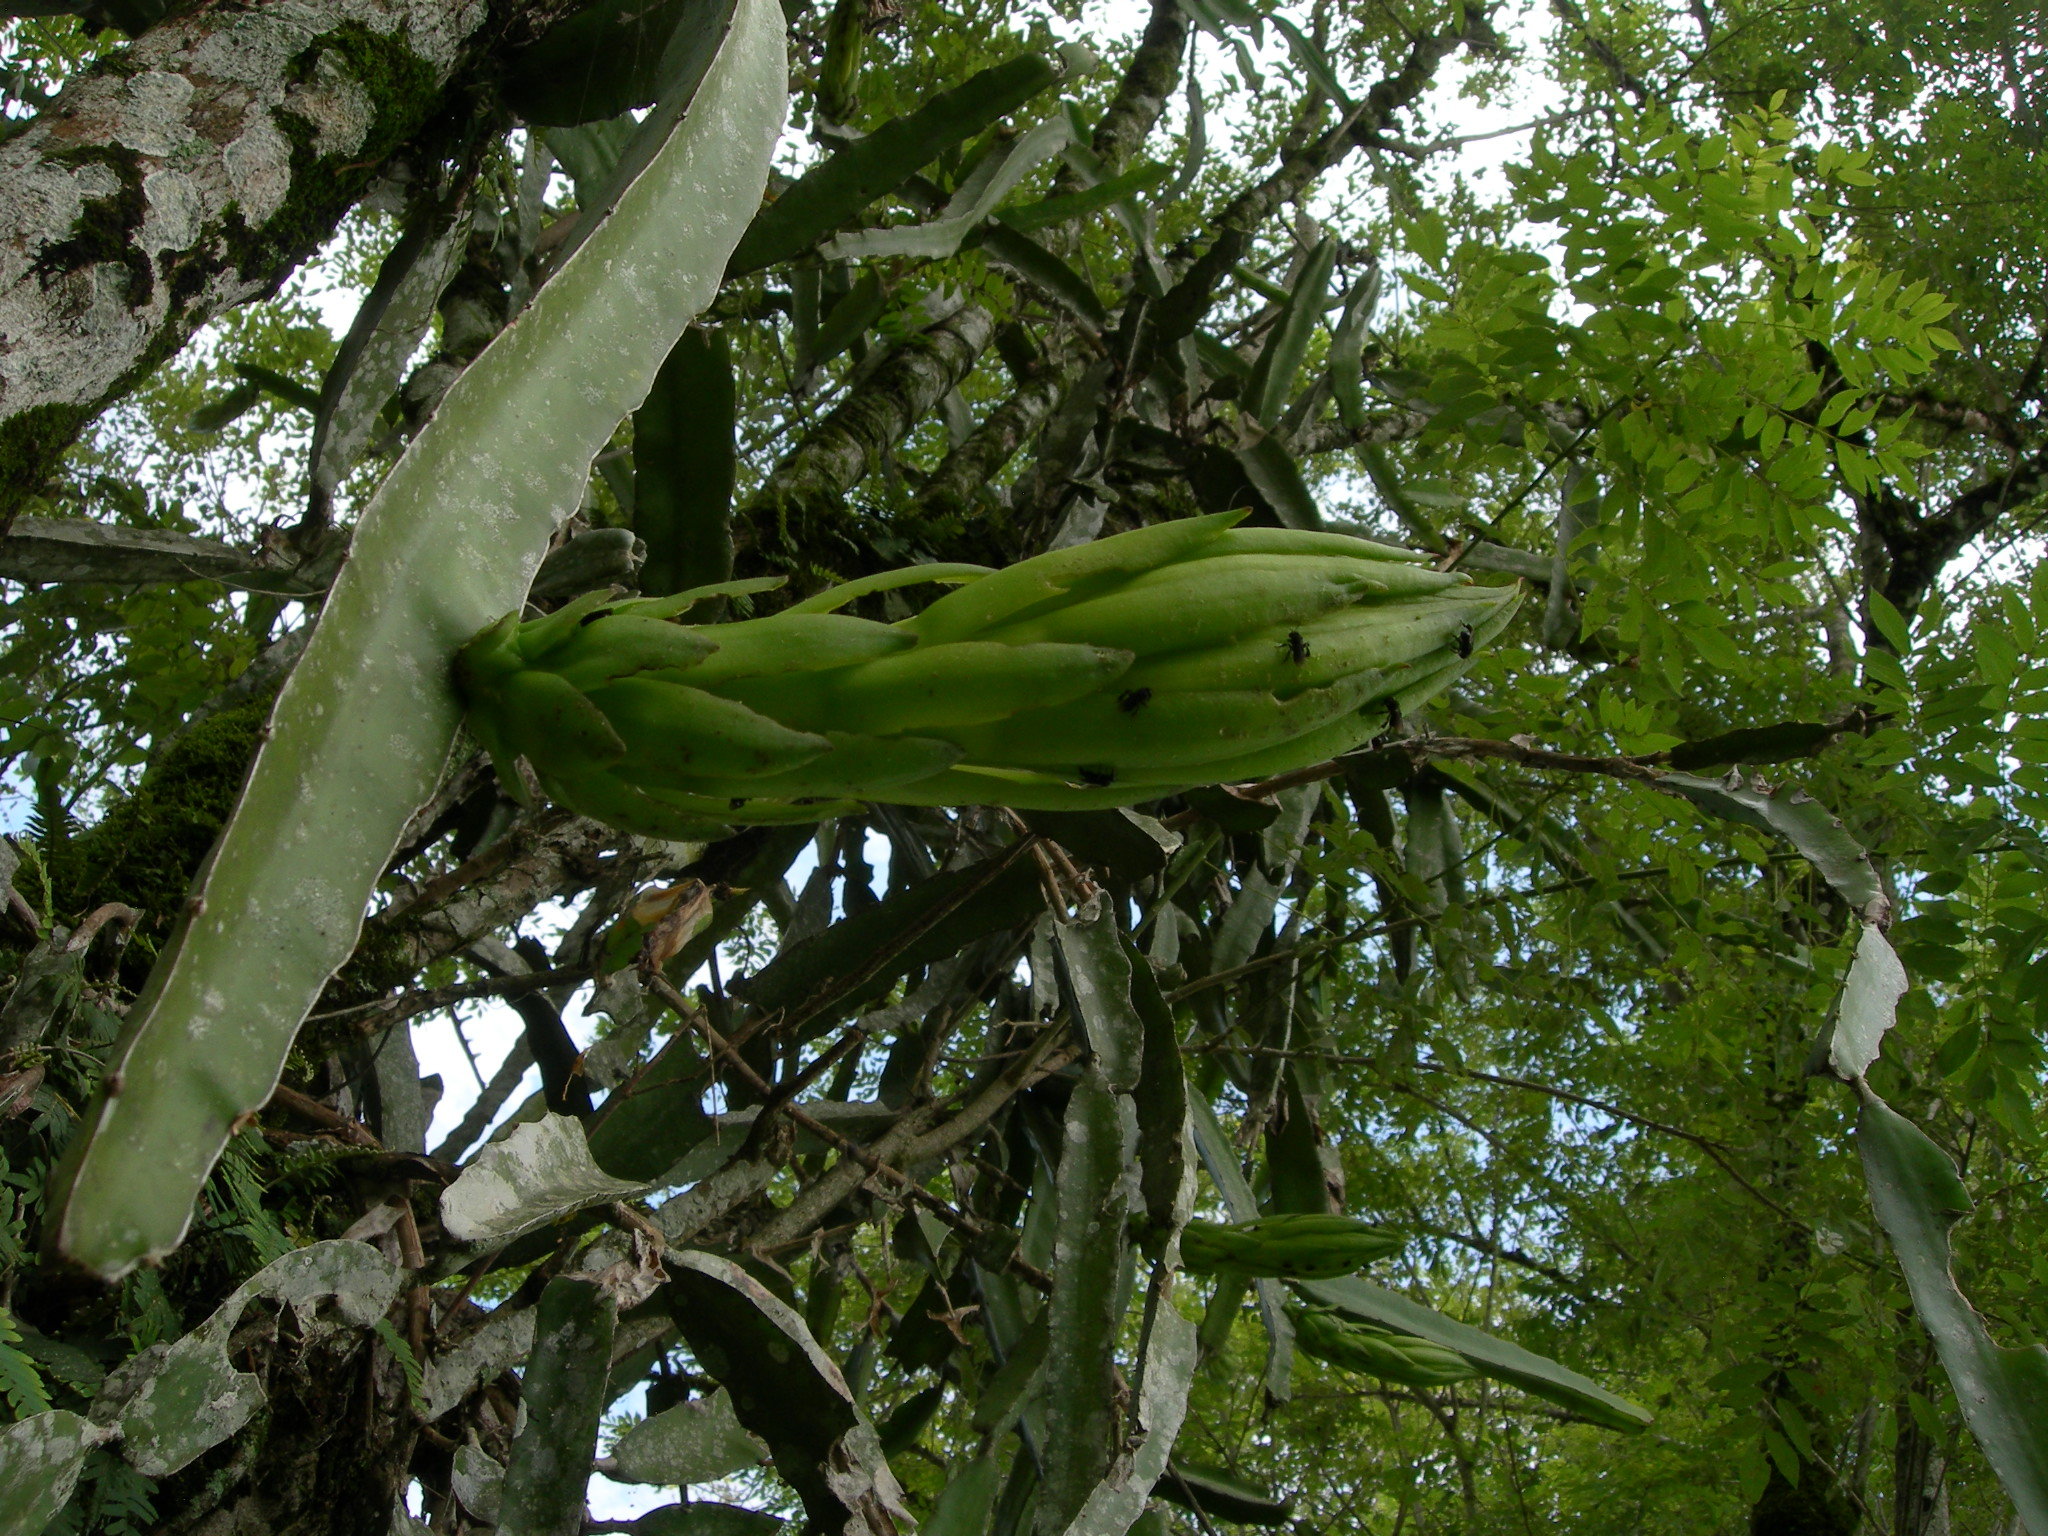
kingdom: Plantae
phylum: Tracheophyta
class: Magnoliopsida
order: Caryophyllales
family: Cactaceae
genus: Selenicereus
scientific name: Selenicereus ocamponis
